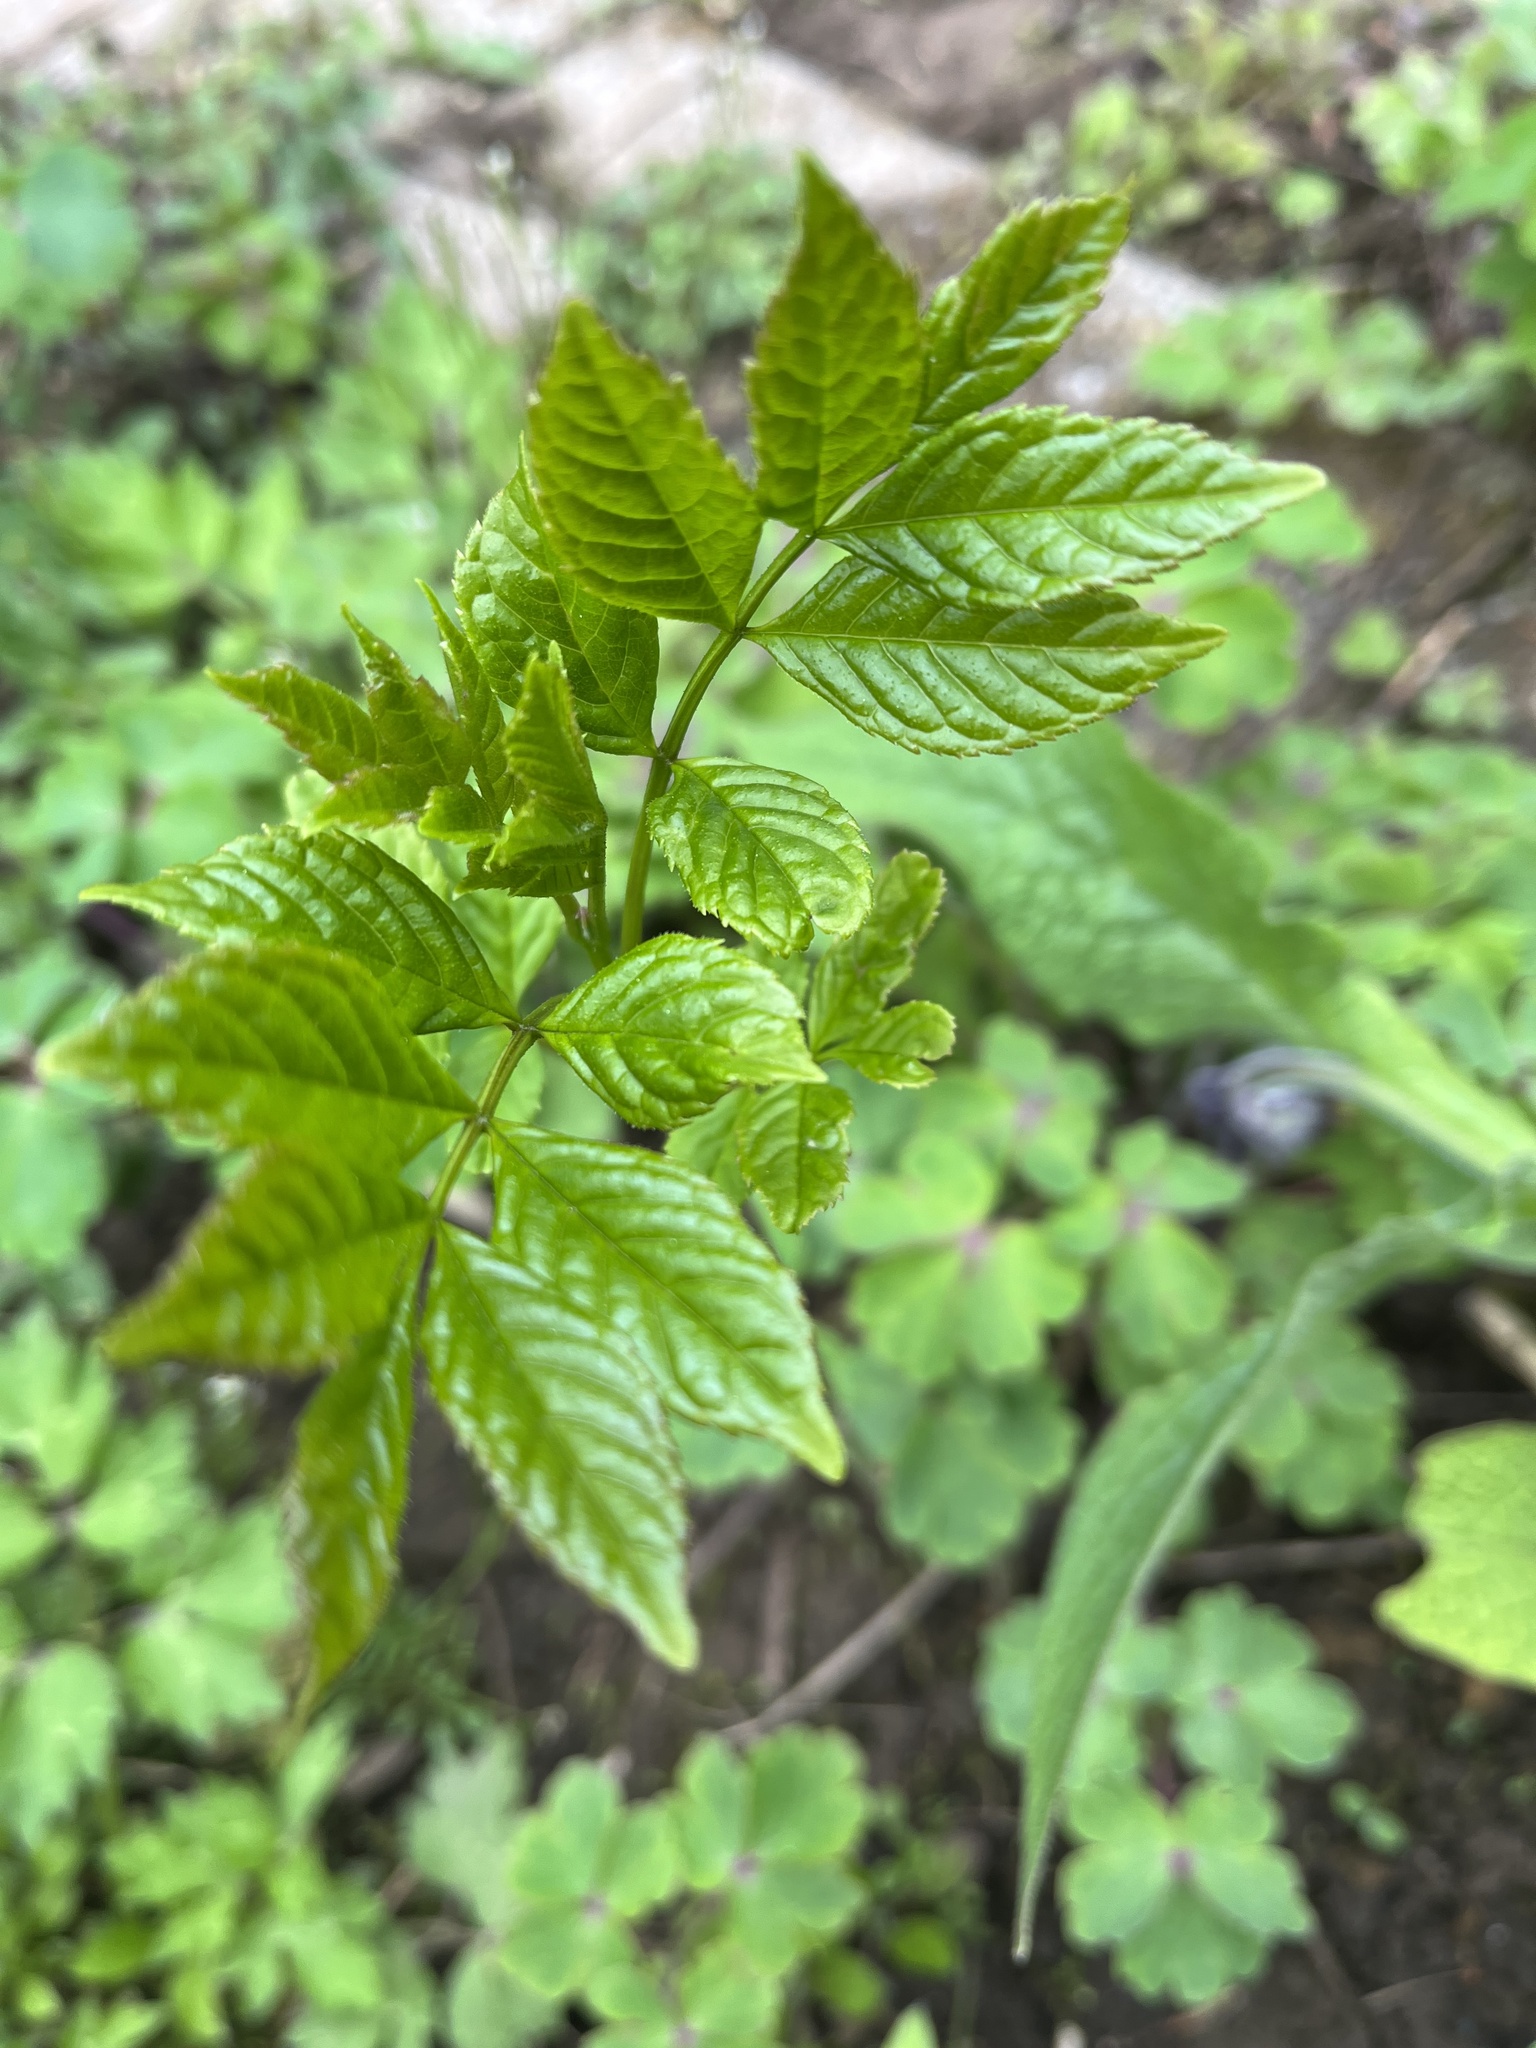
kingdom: Plantae
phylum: Tracheophyta
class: Magnoliopsida
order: Lamiales
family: Oleaceae
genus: Fraxinus
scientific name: Fraxinus excelsior
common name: European ash
